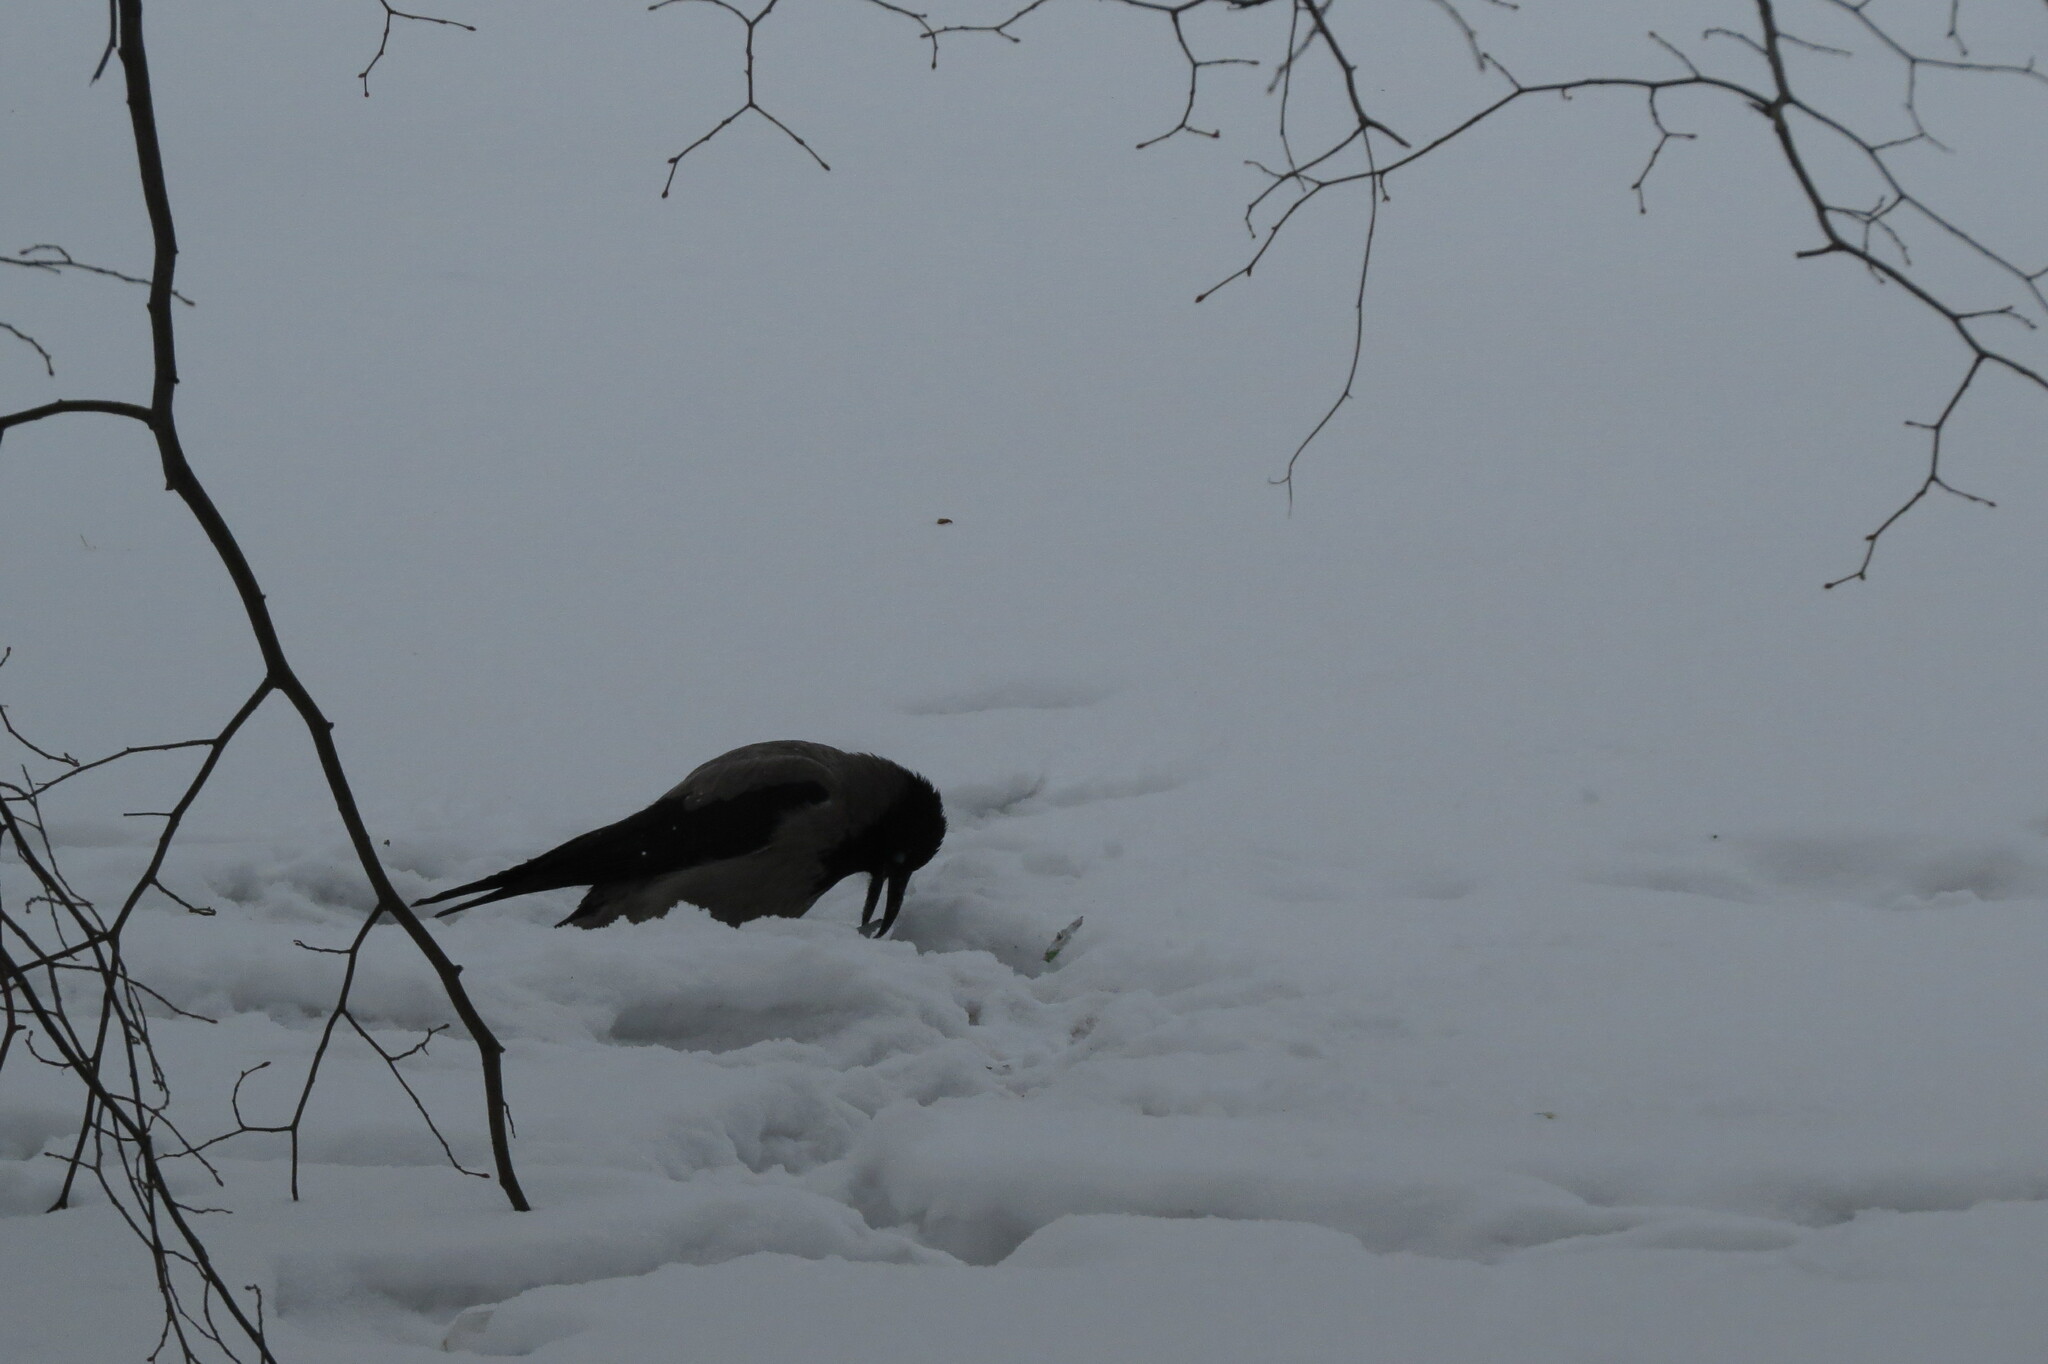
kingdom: Animalia
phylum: Chordata
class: Aves
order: Passeriformes
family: Corvidae
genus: Corvus
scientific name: Corvus cornix
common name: Hooded crow
